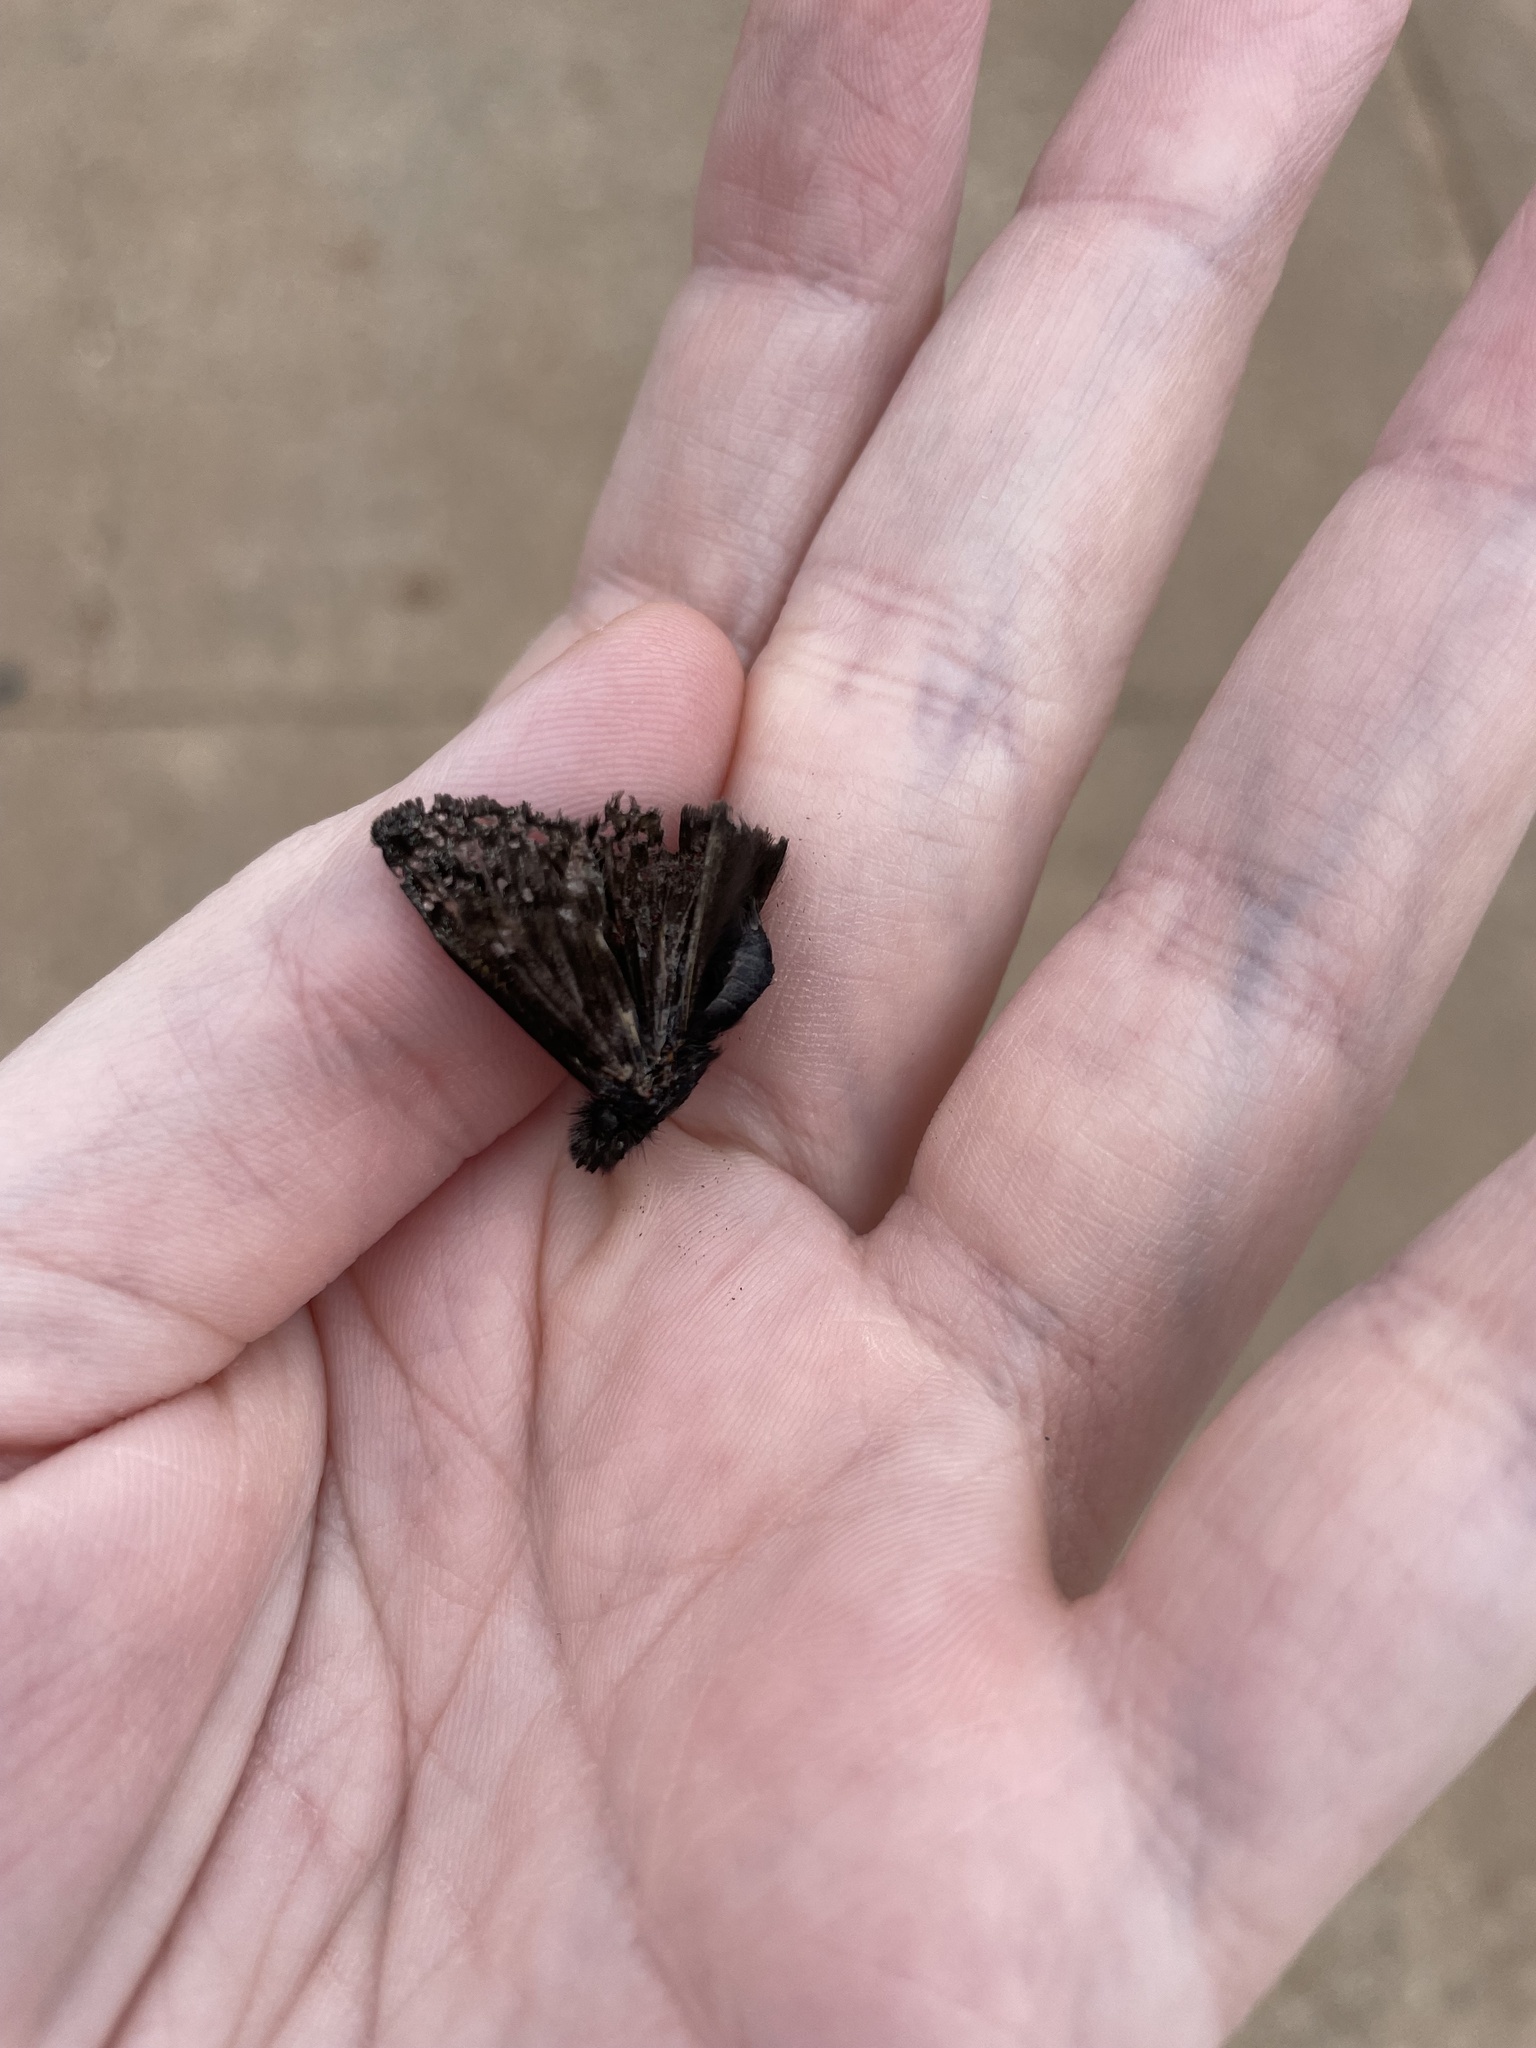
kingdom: Animalia
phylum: Arthropoda
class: Insecta
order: Lepidoptera
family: Hesperiidae
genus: Erynnis
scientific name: Erynnis juvenalis
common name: Juvenal's duskywing
